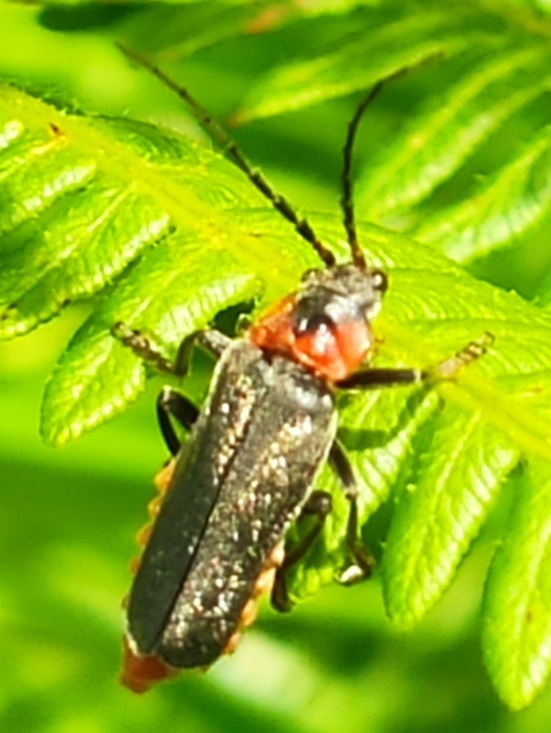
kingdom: Animalia
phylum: Arthropoda
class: Insecta
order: Coleoptera
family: Cantharidae
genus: Cantharis
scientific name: Cantharis reichei
